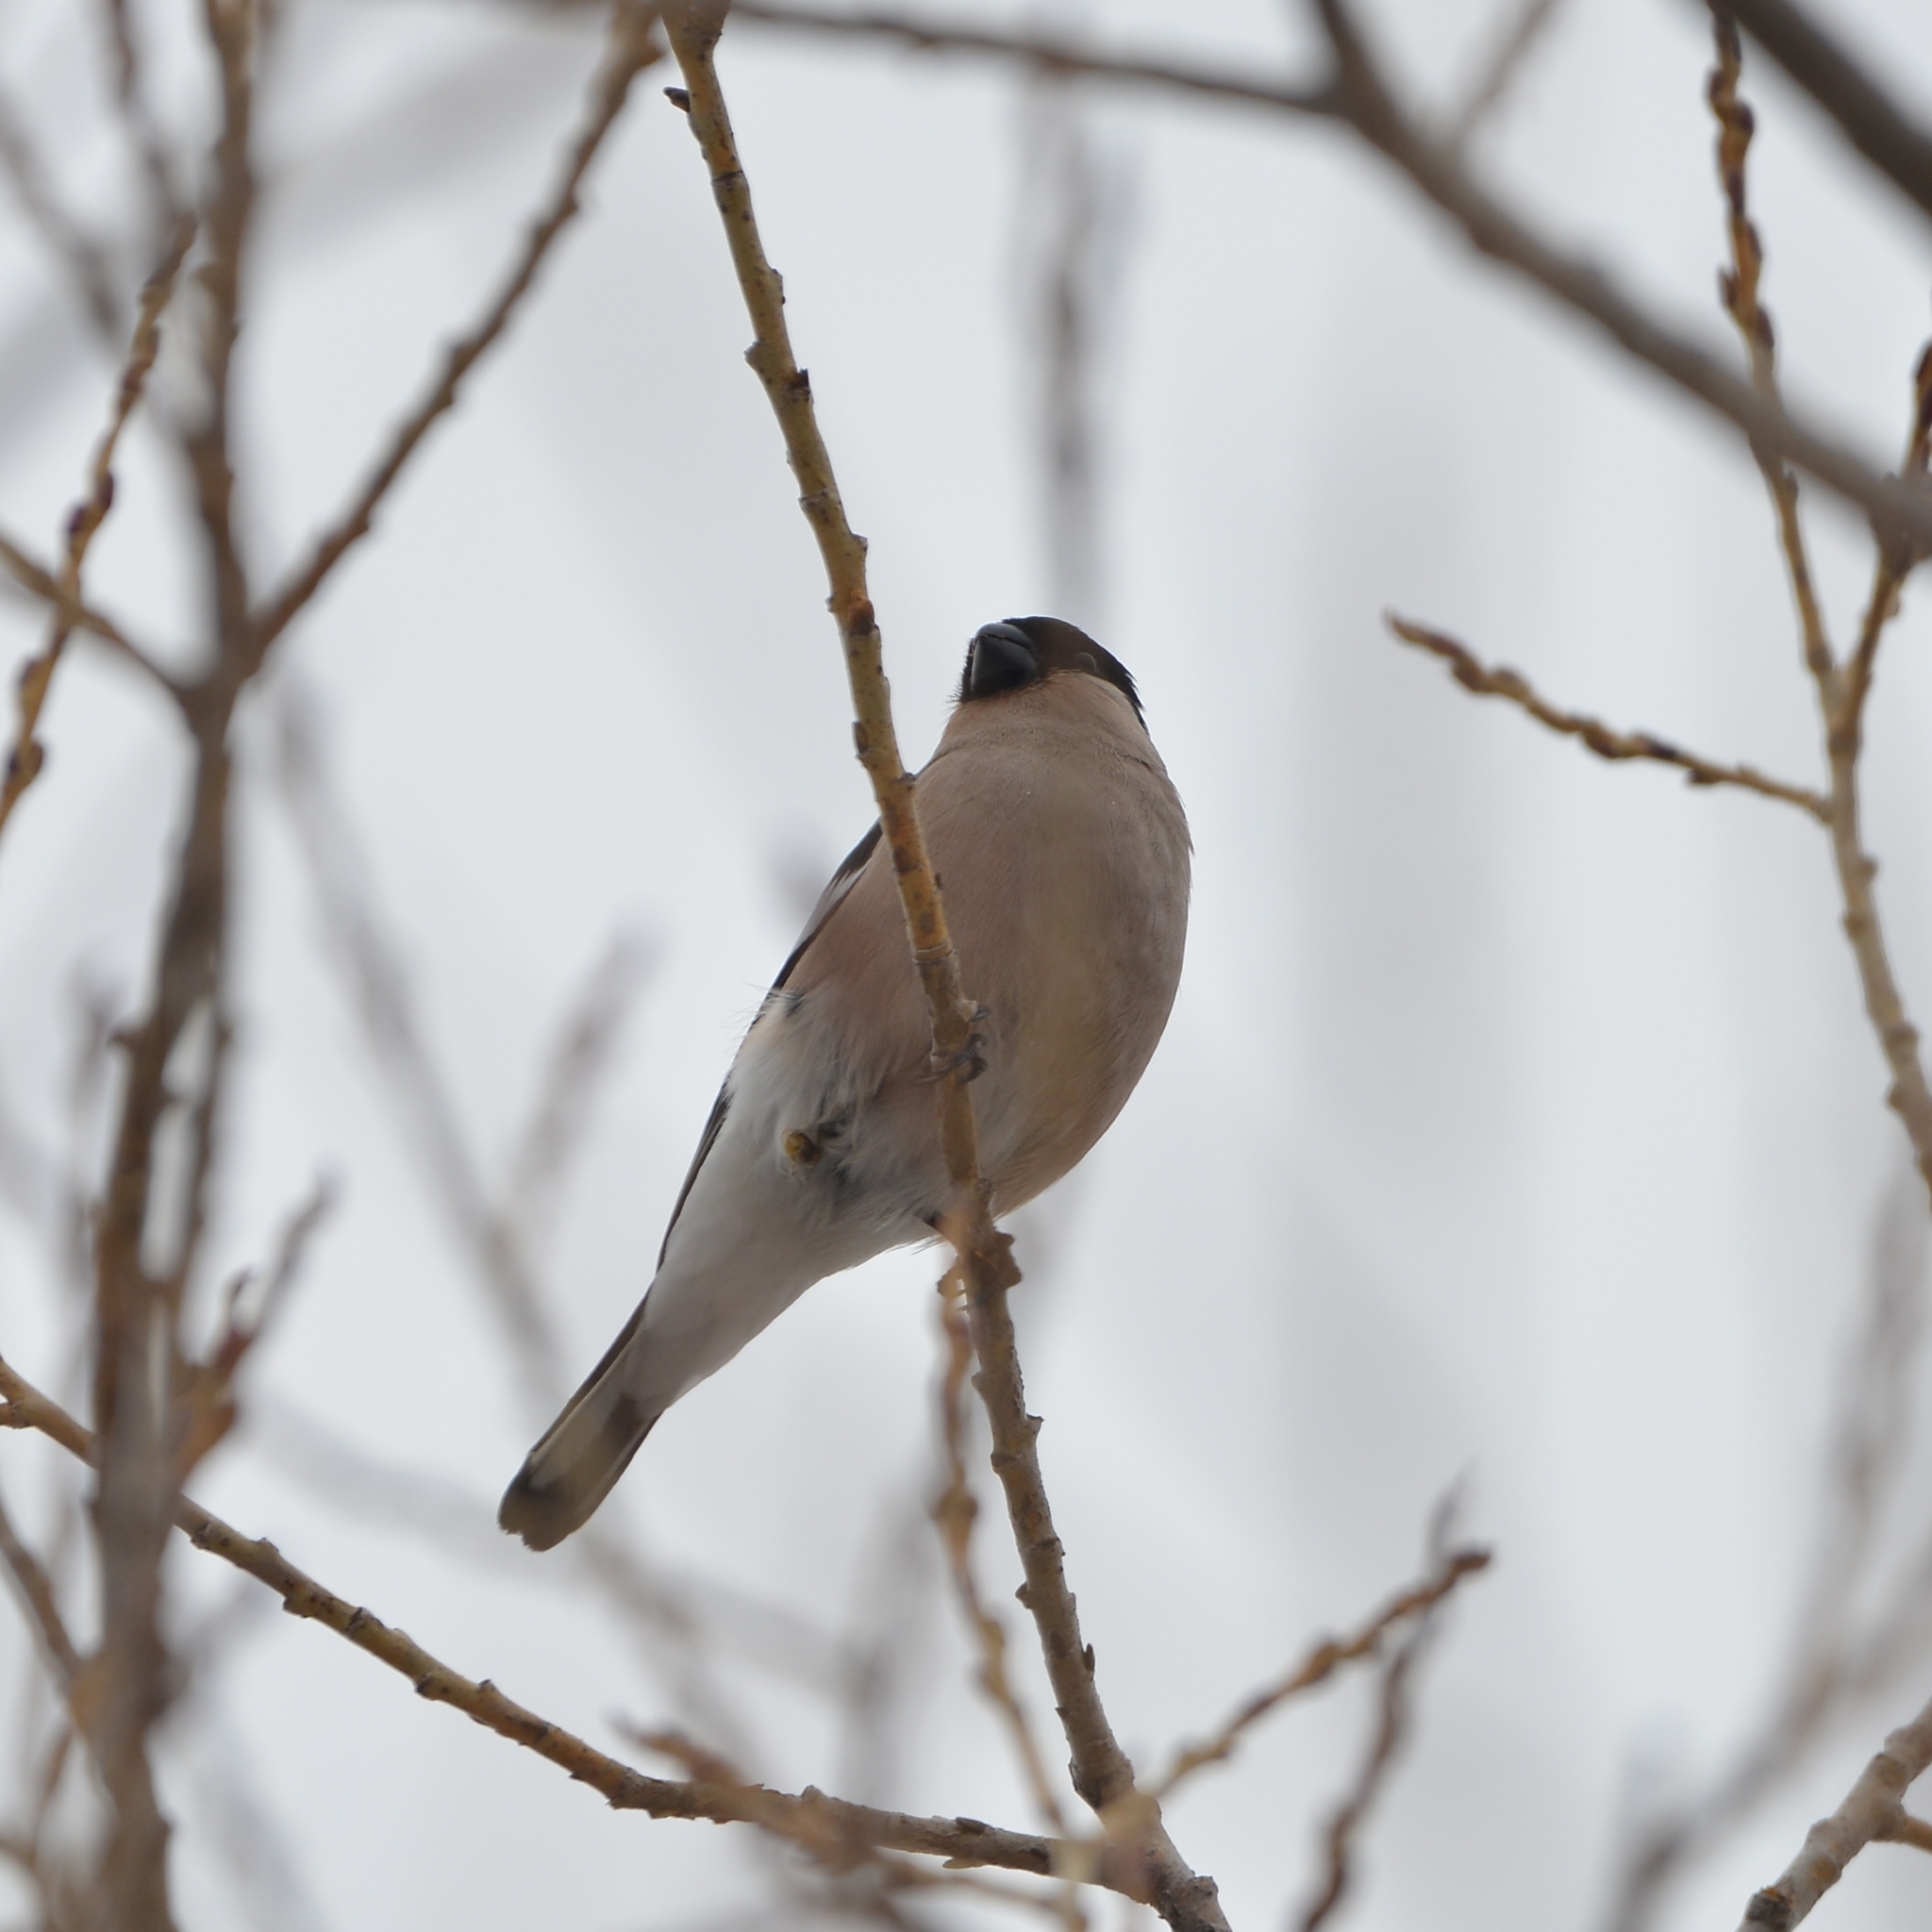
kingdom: Animalia
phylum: Chordata
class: Aves
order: Passeriformes
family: Fringillidae
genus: Pyrrhula
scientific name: Pyrrhula pyrrhula
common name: Eurasian bullfinch
